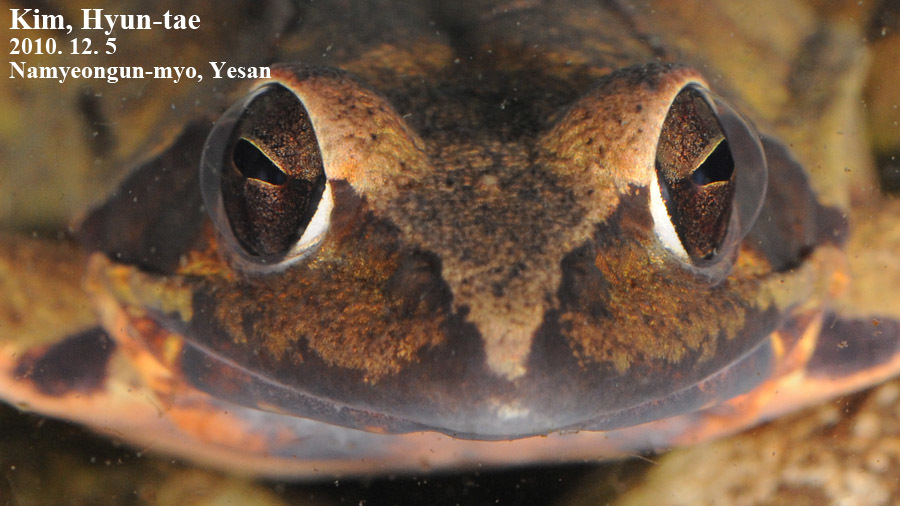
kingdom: Animalia
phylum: Chordata
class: Amphibia
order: Anura
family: Ranidae
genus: Rana
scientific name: Rana uenoi
